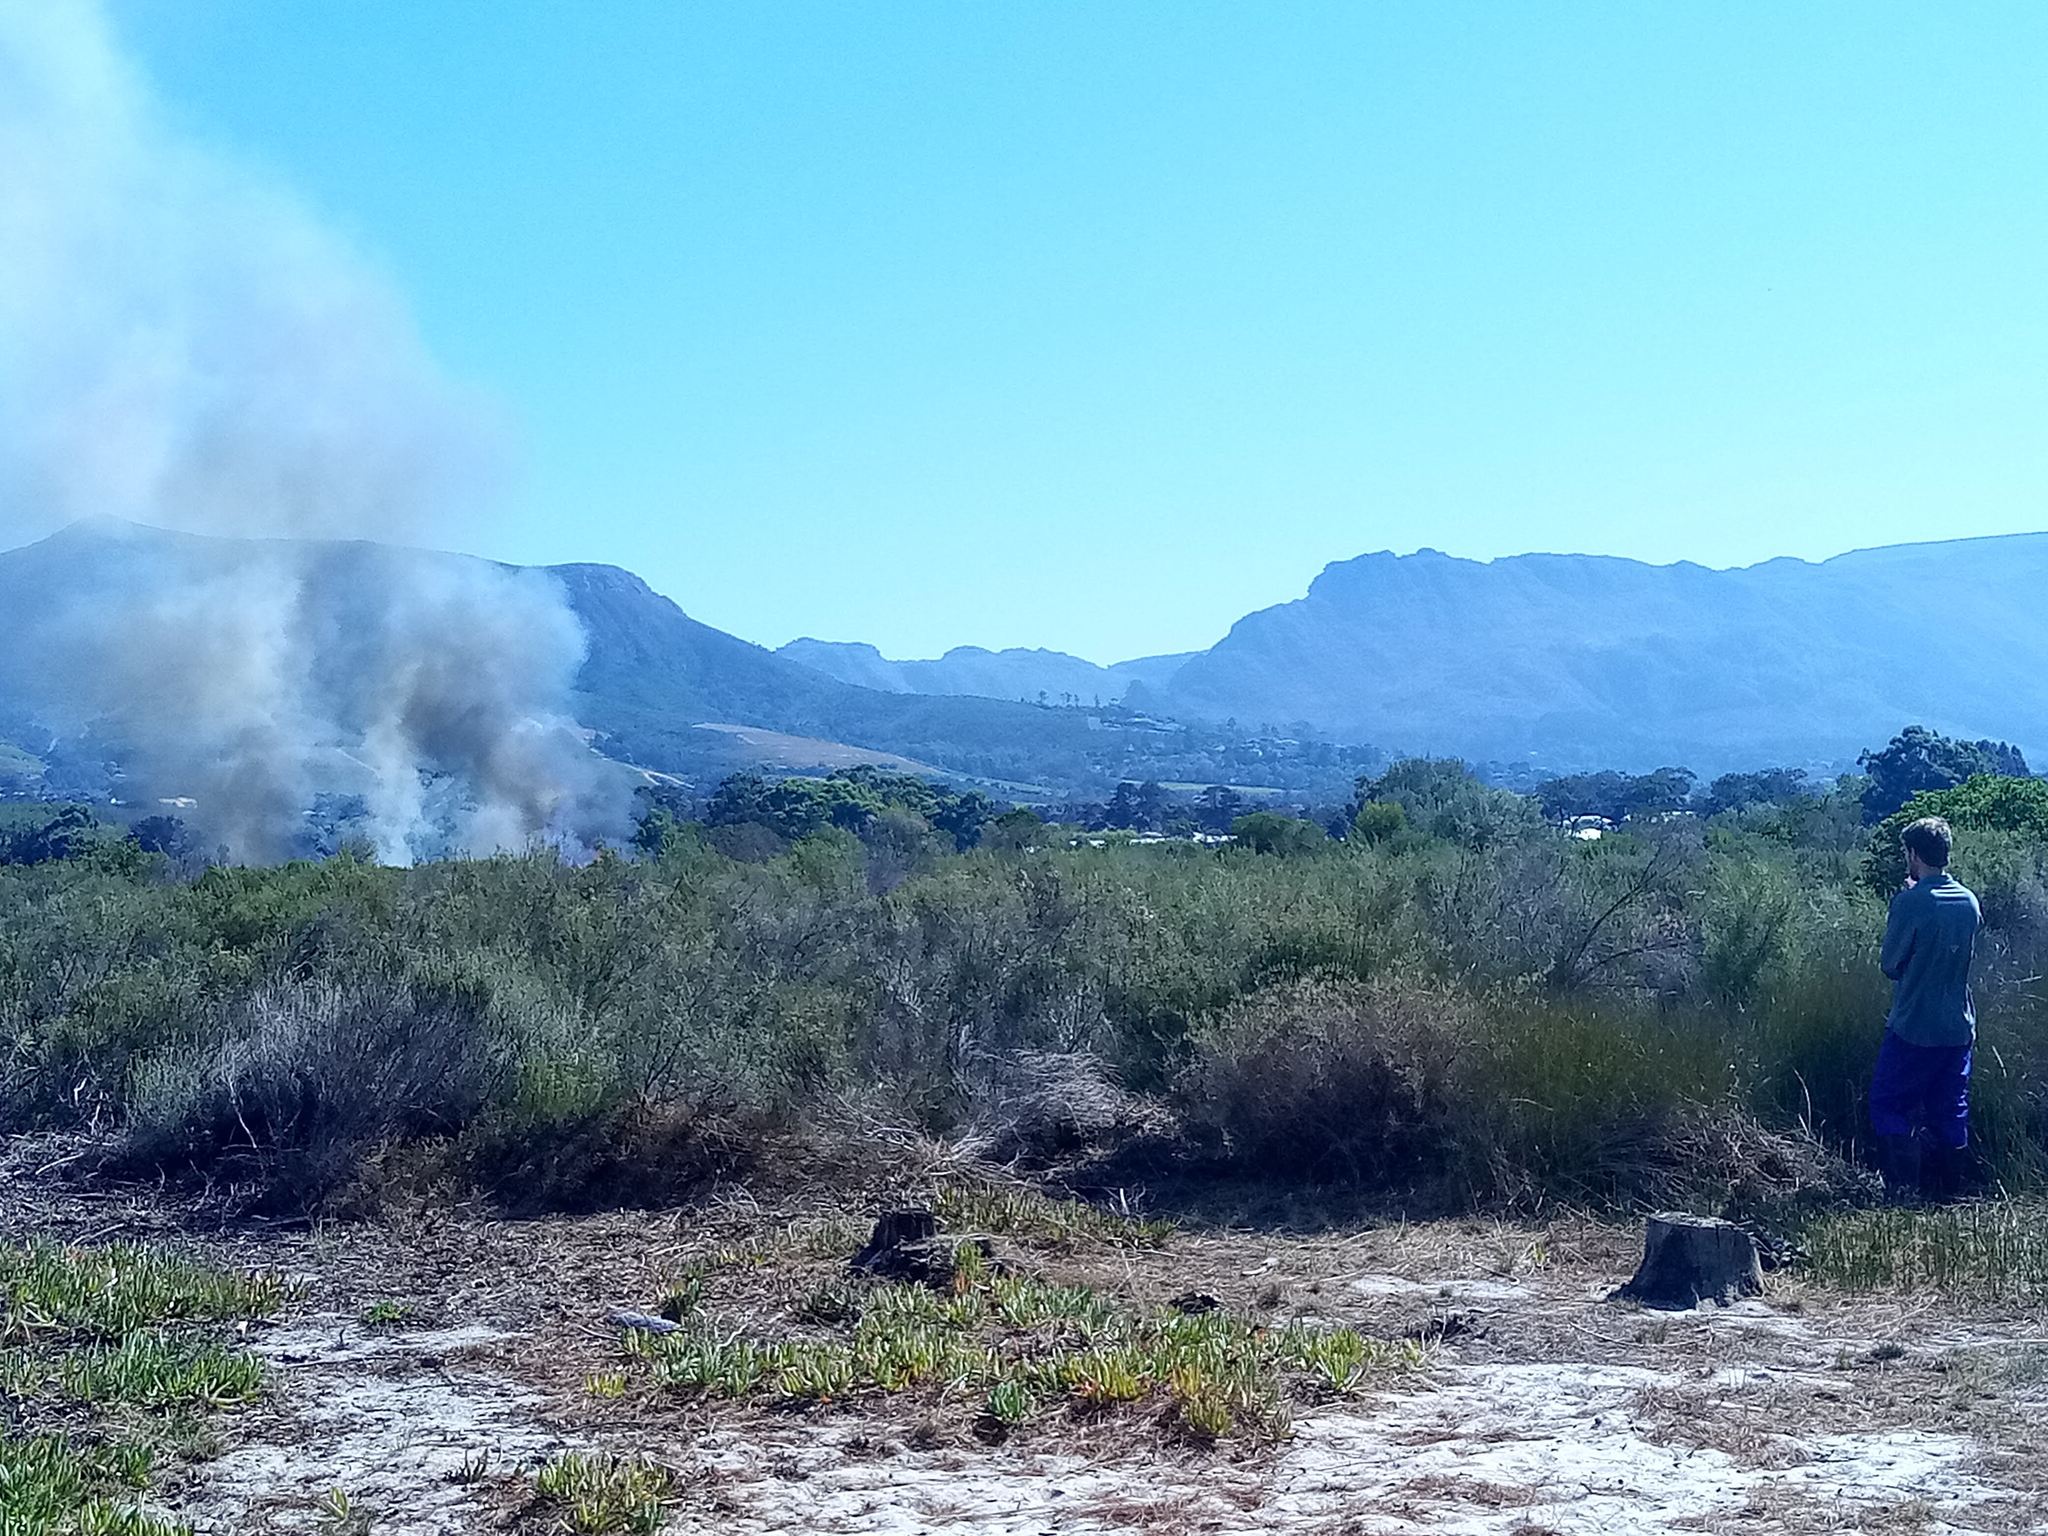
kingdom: Plantae
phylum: Tracheophyta
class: Magnoliopsida
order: Caryophyllales
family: Aizoaceae
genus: Carpobrotus
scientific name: Carpobrotus edulis
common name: Hottentot-fig
